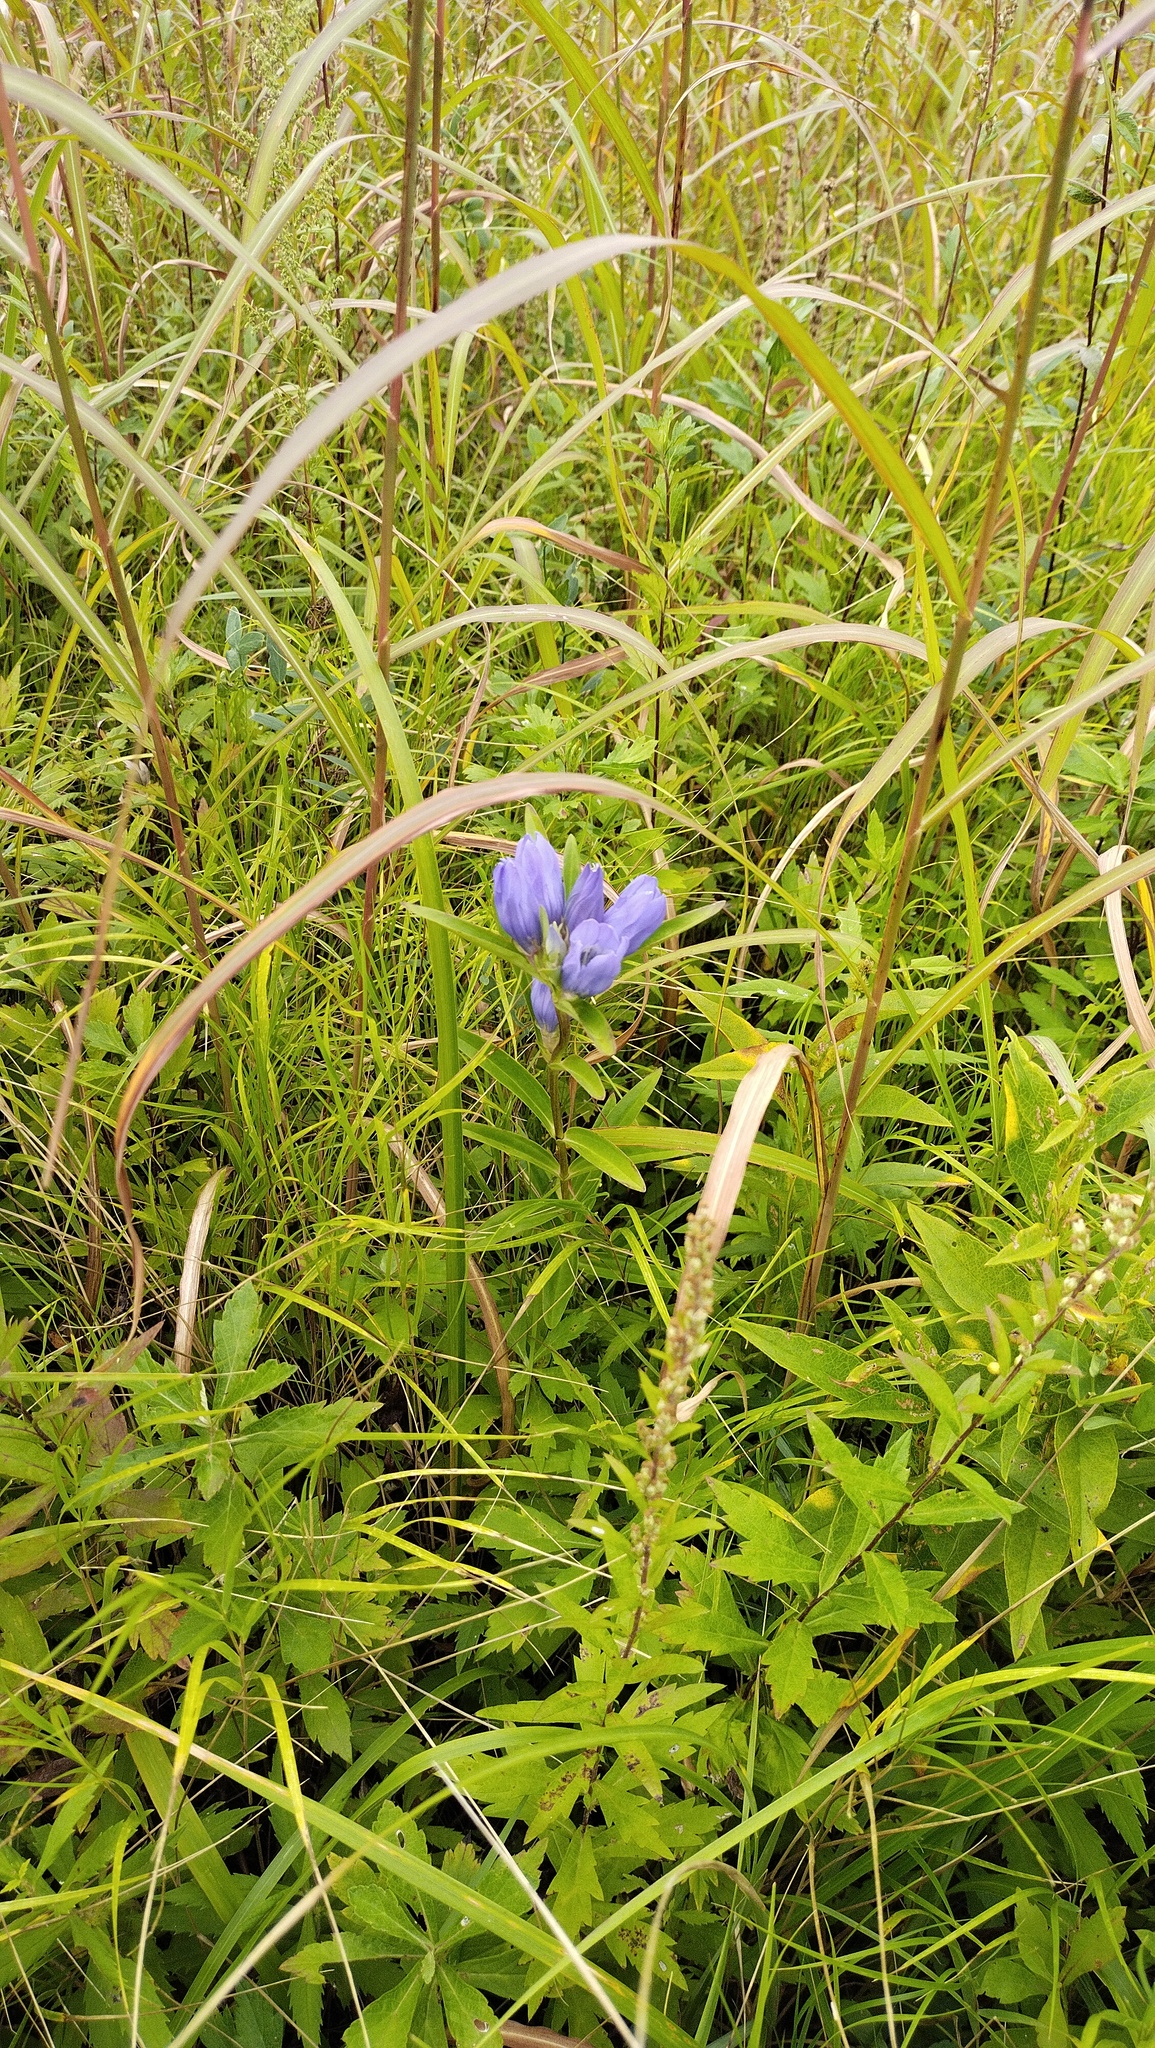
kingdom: Plantae
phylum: Tracheophyta
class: Magnoliopsida
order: Gentianales
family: Gentianaceae
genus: Gentiana
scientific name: Gentiana triflora
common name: Three-flower gentian
